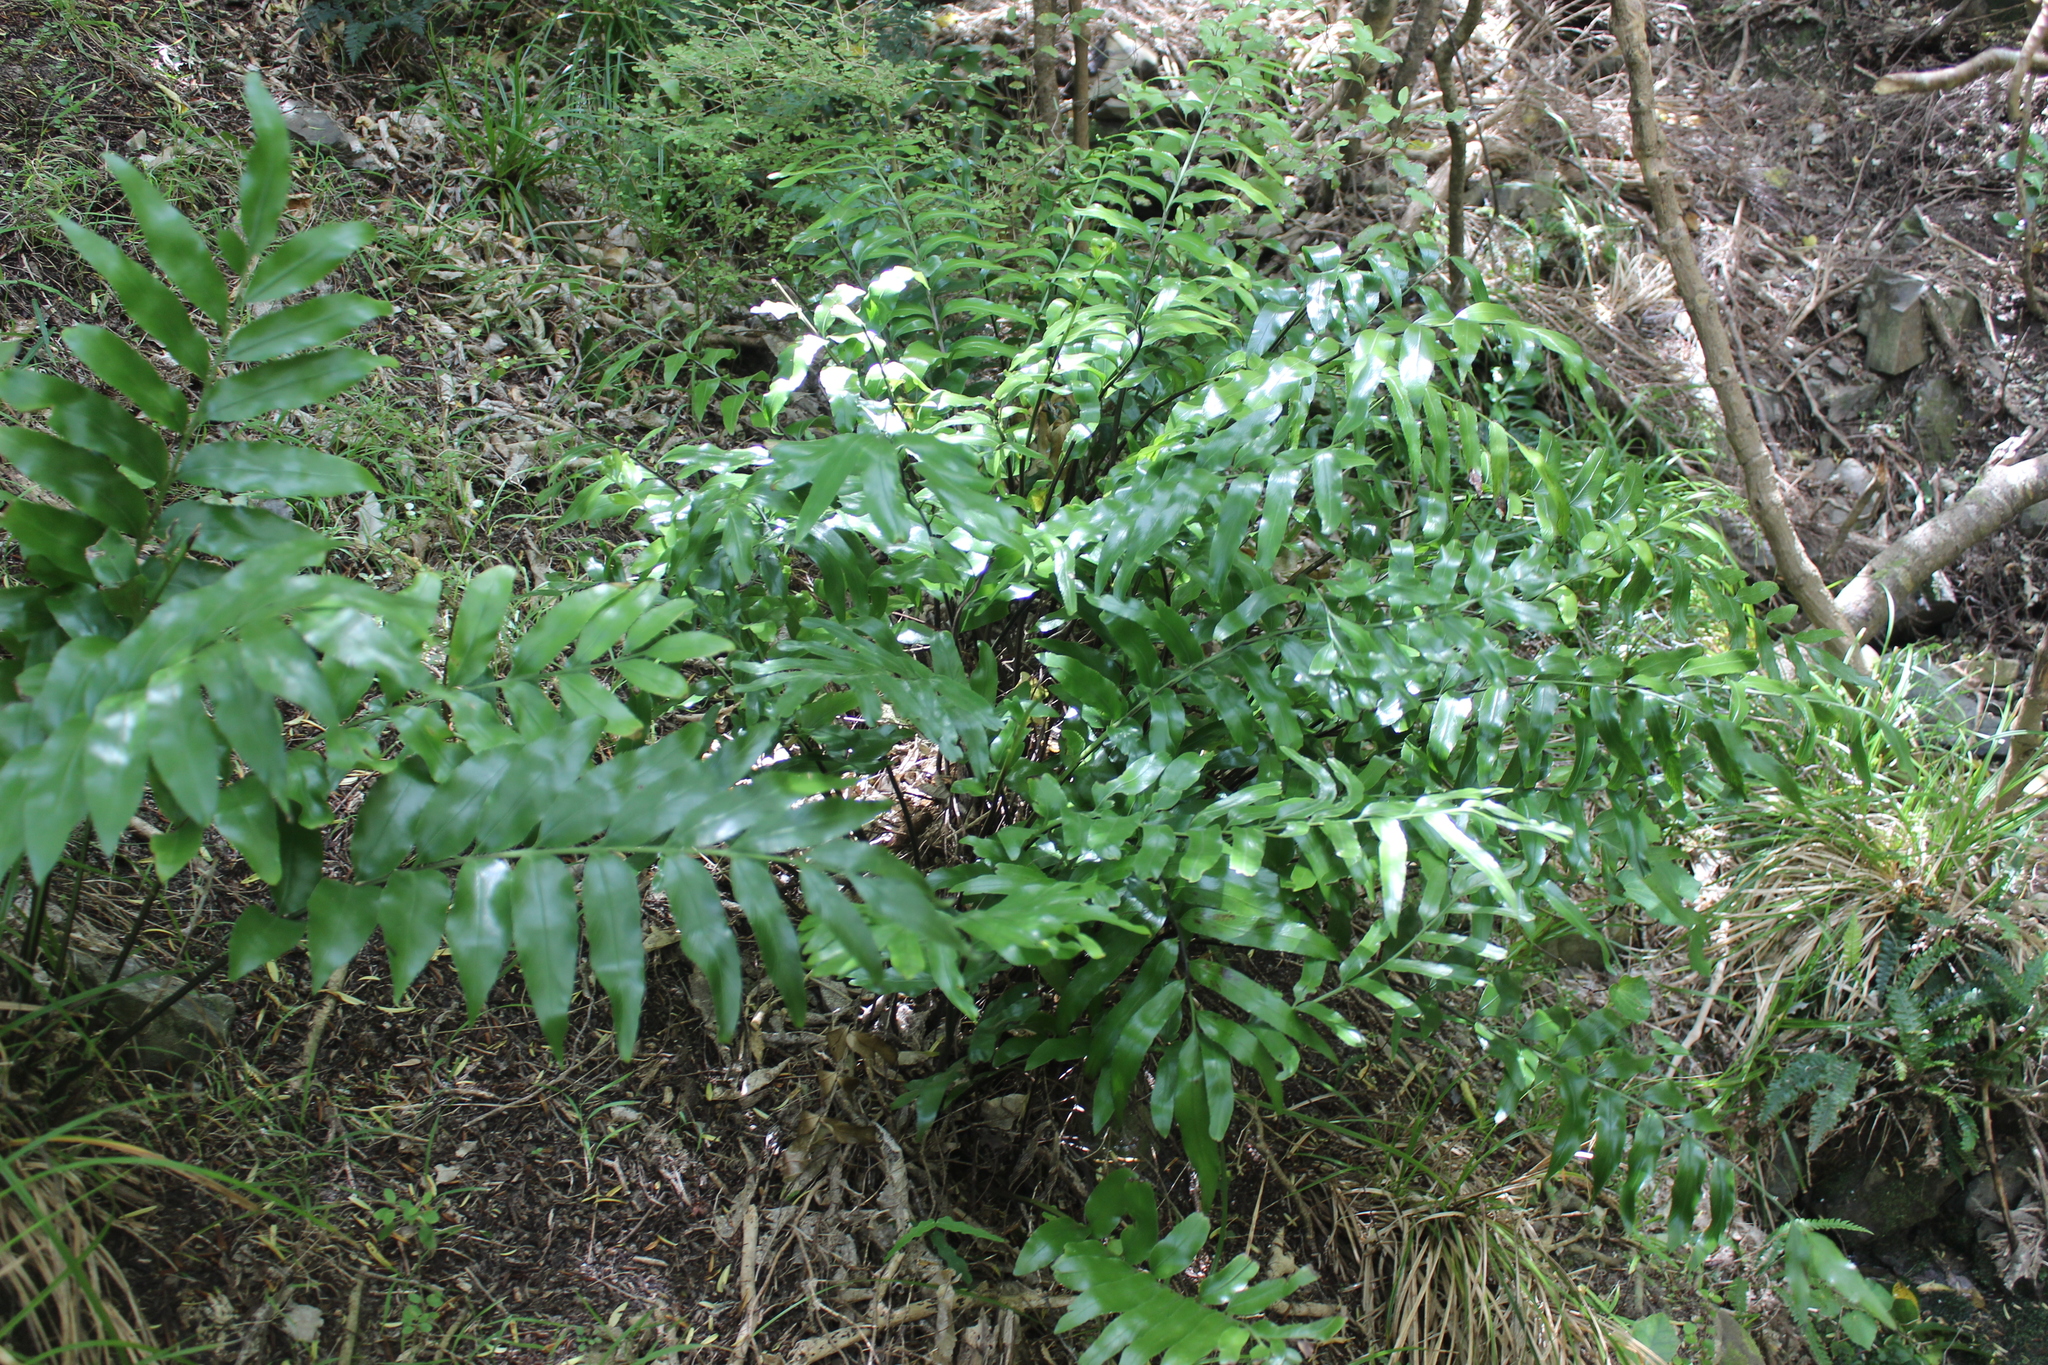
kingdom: Plantae
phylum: Tracheophyta
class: Polypodiopsida
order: Polypodiales
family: Aspleniaceae
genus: Asplenium
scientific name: Asplenium oblongifolium
